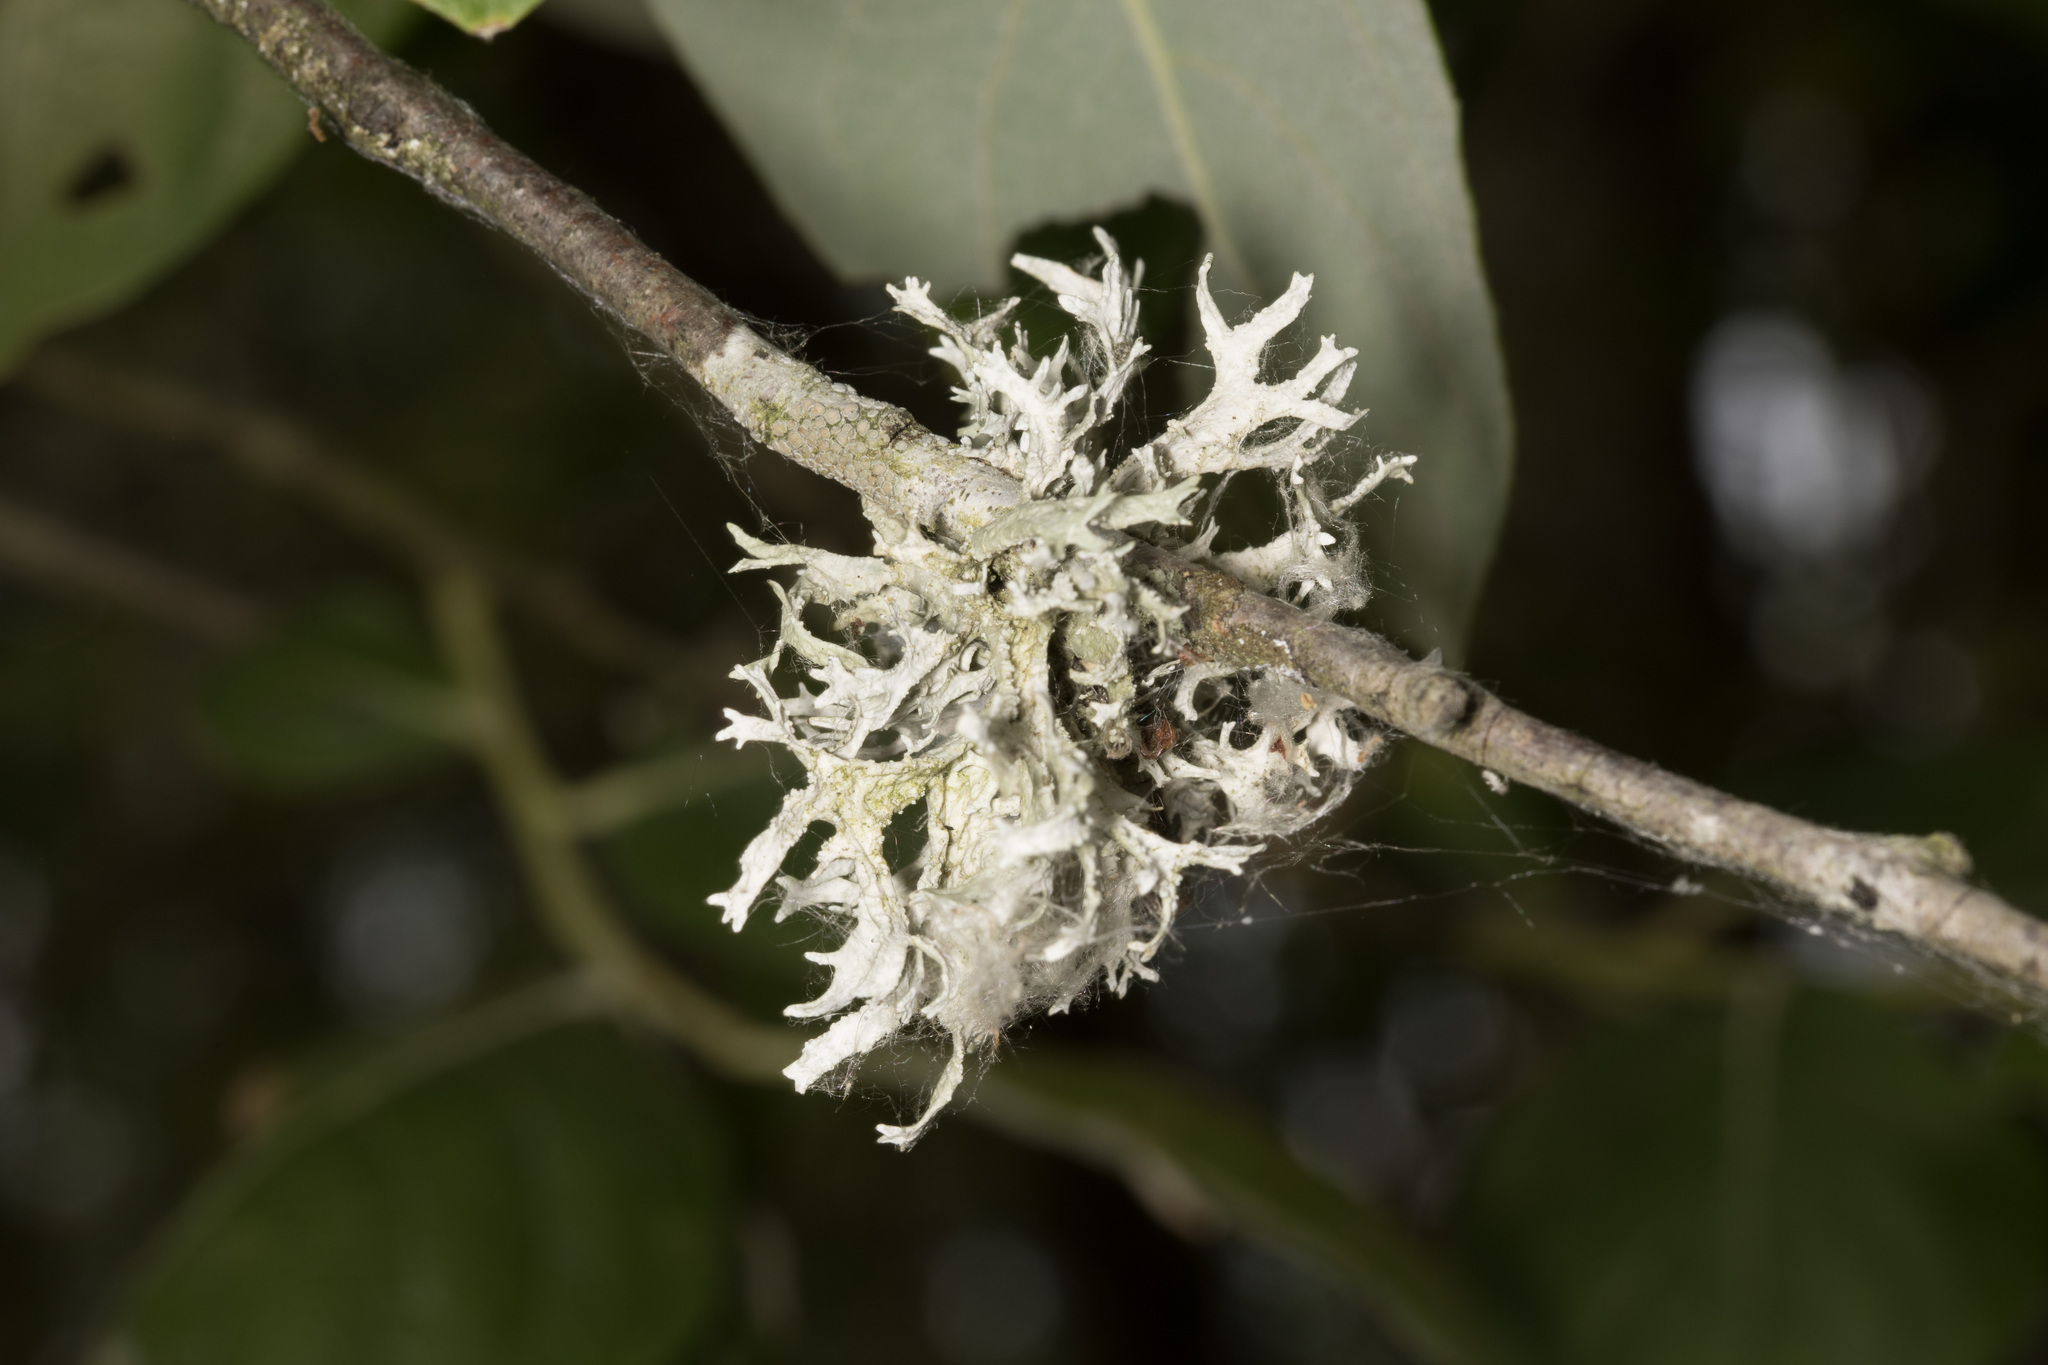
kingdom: Fungi
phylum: Ascomycota
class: Lecanoromycetes
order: Lecanorales
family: Parmeliaceae
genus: Evernia
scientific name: Evernia prunastri
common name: Oak moss
